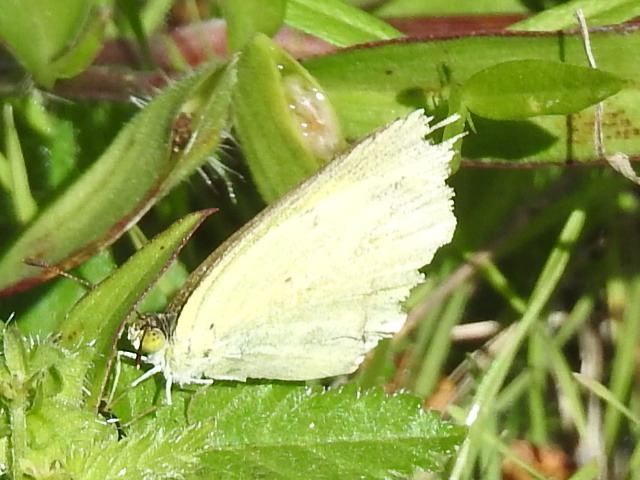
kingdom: Animalia
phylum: Arthropoda
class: Insecta
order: Lepidoptera
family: Pieridae
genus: Pyrisitia
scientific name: Pyrisitia lisa
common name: Little yellow
